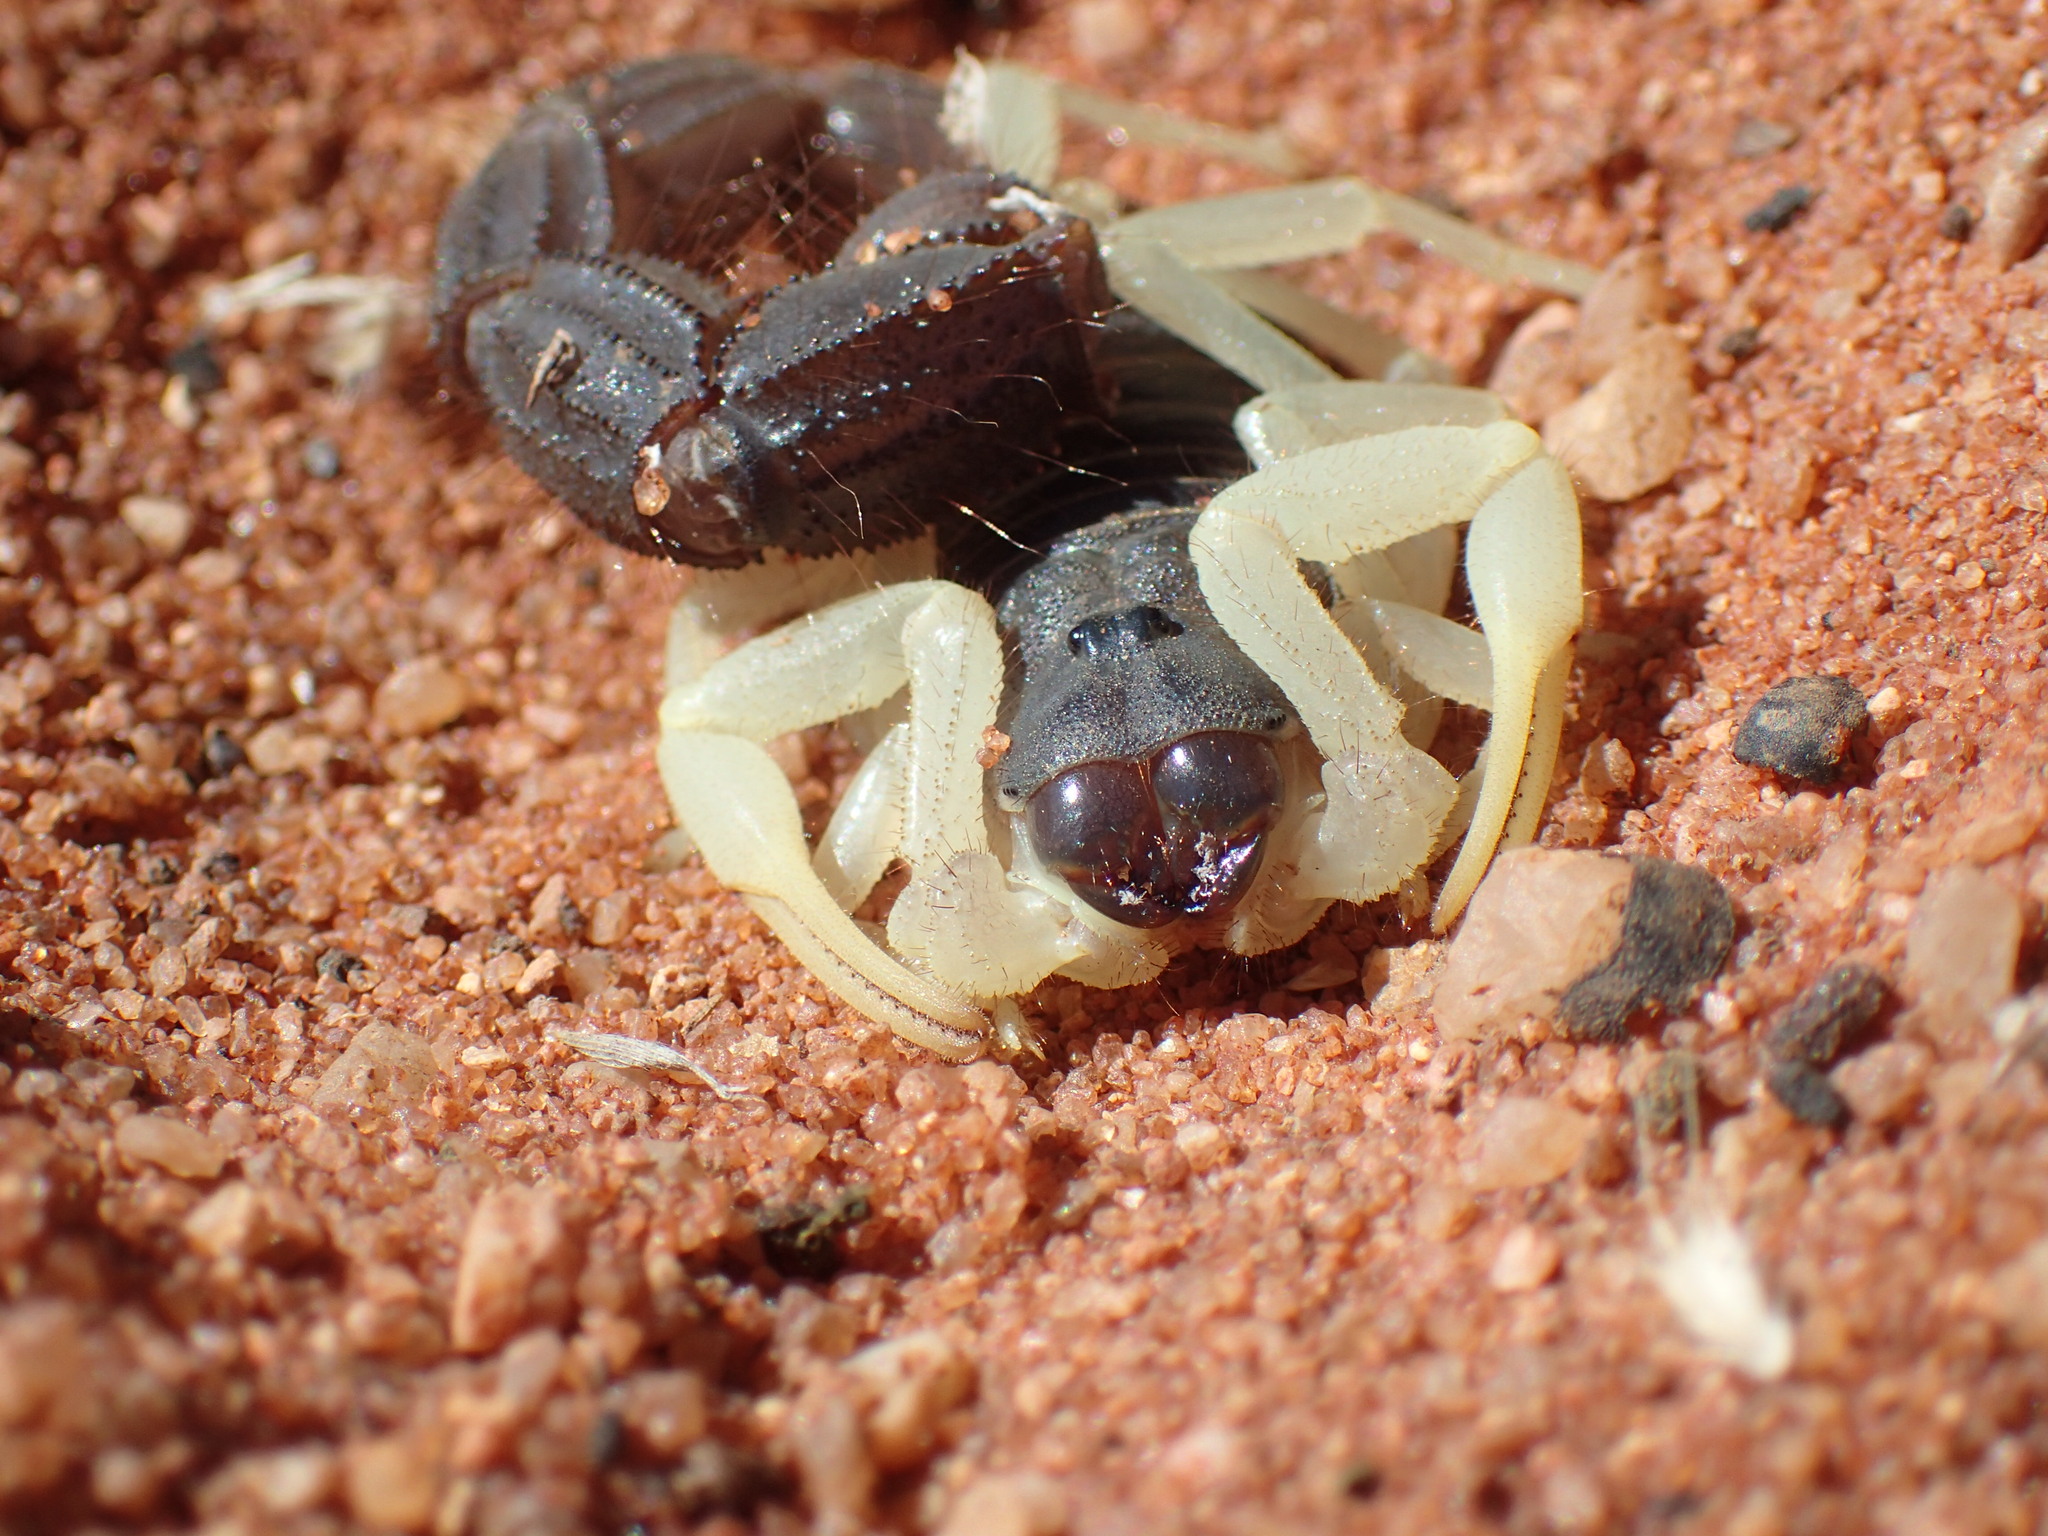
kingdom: Animalia
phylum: Arthropoda
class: Arachnida
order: Scorpiones
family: Buthidae
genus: Parabuthus
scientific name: Parabuthus schlechteri
